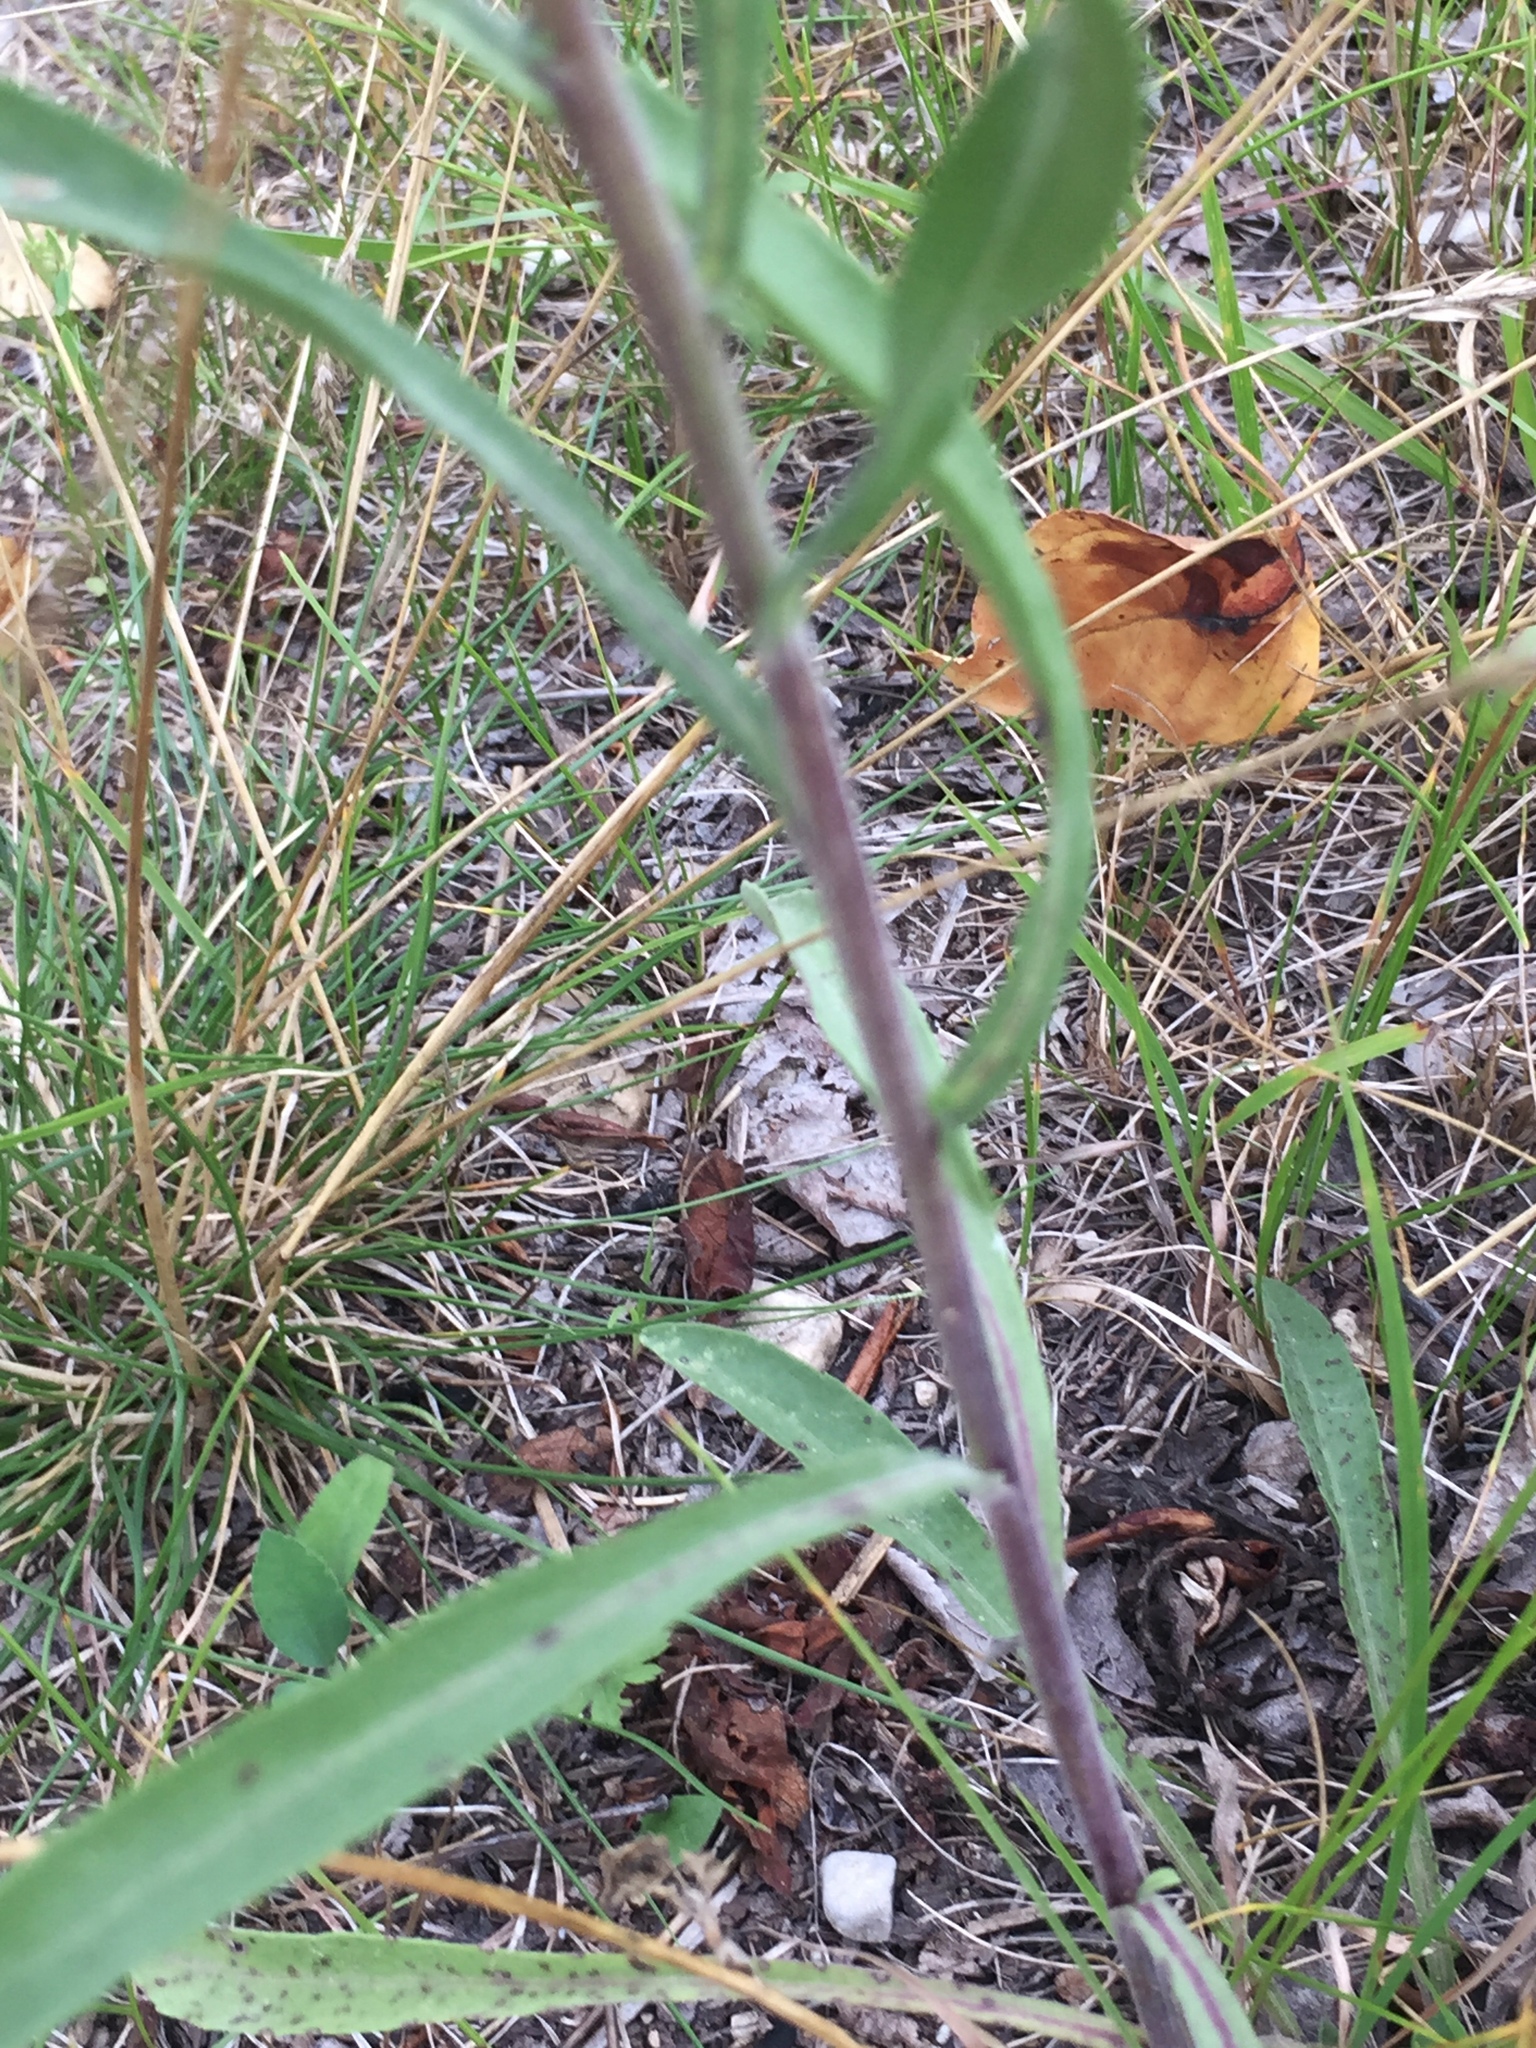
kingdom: Plantae
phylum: Tracheophyta
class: Magnoliopsida
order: Asterales
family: Asteraceae
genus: Solidago
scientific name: Solidago nemoralis
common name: Grey goldenrod
